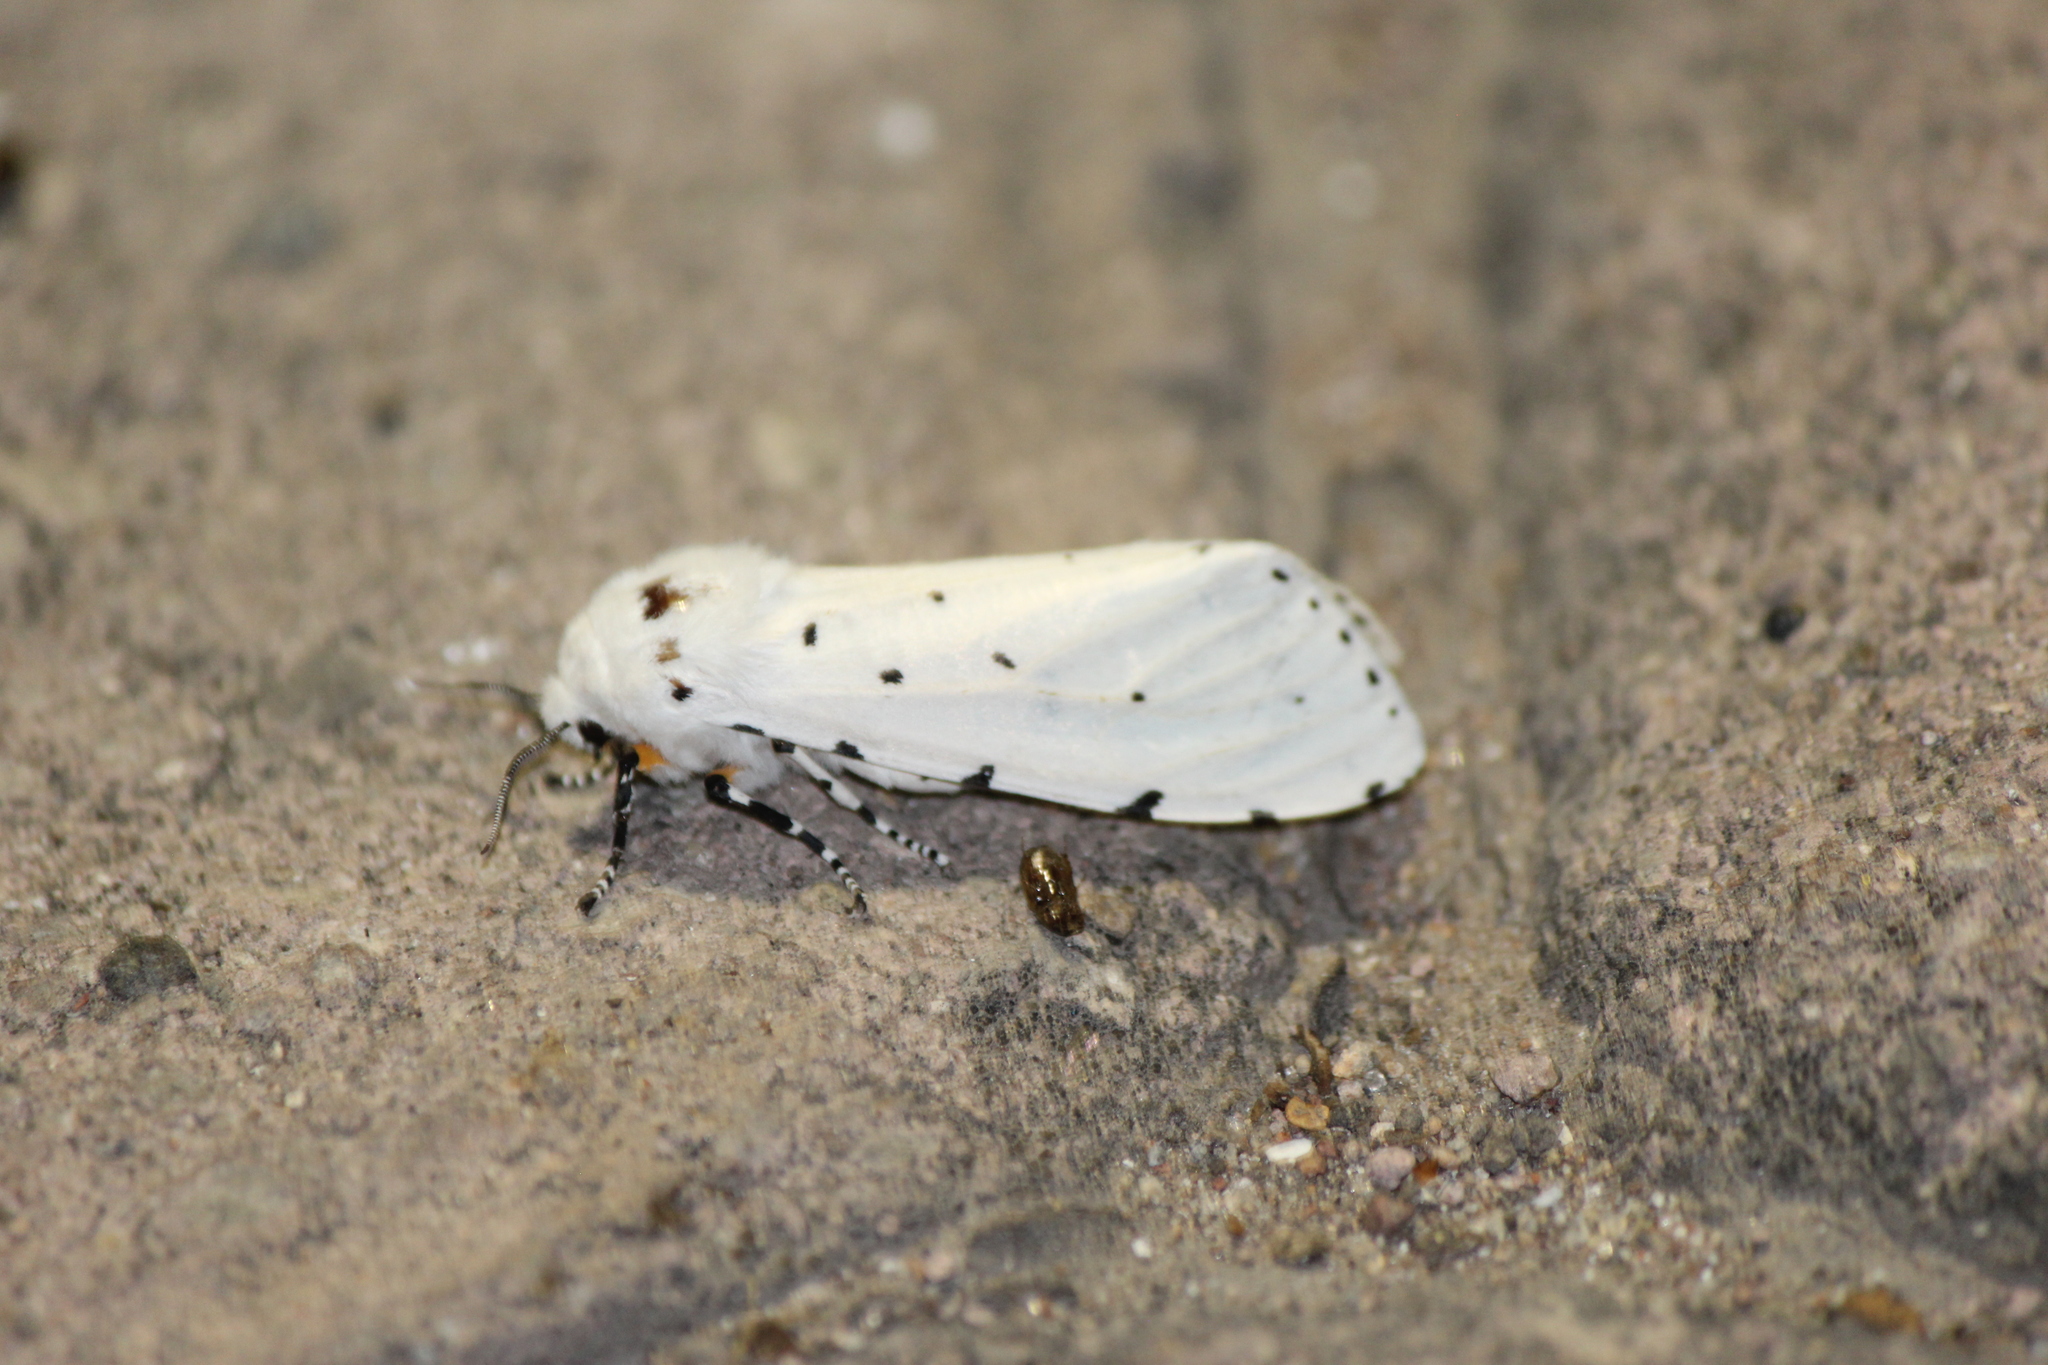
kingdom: Animalia
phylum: Arthropoda
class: Insecta
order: Lepidoptera
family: Erebidae
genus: Estigmene
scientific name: Estigmene acrea
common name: Salt marsh moth
